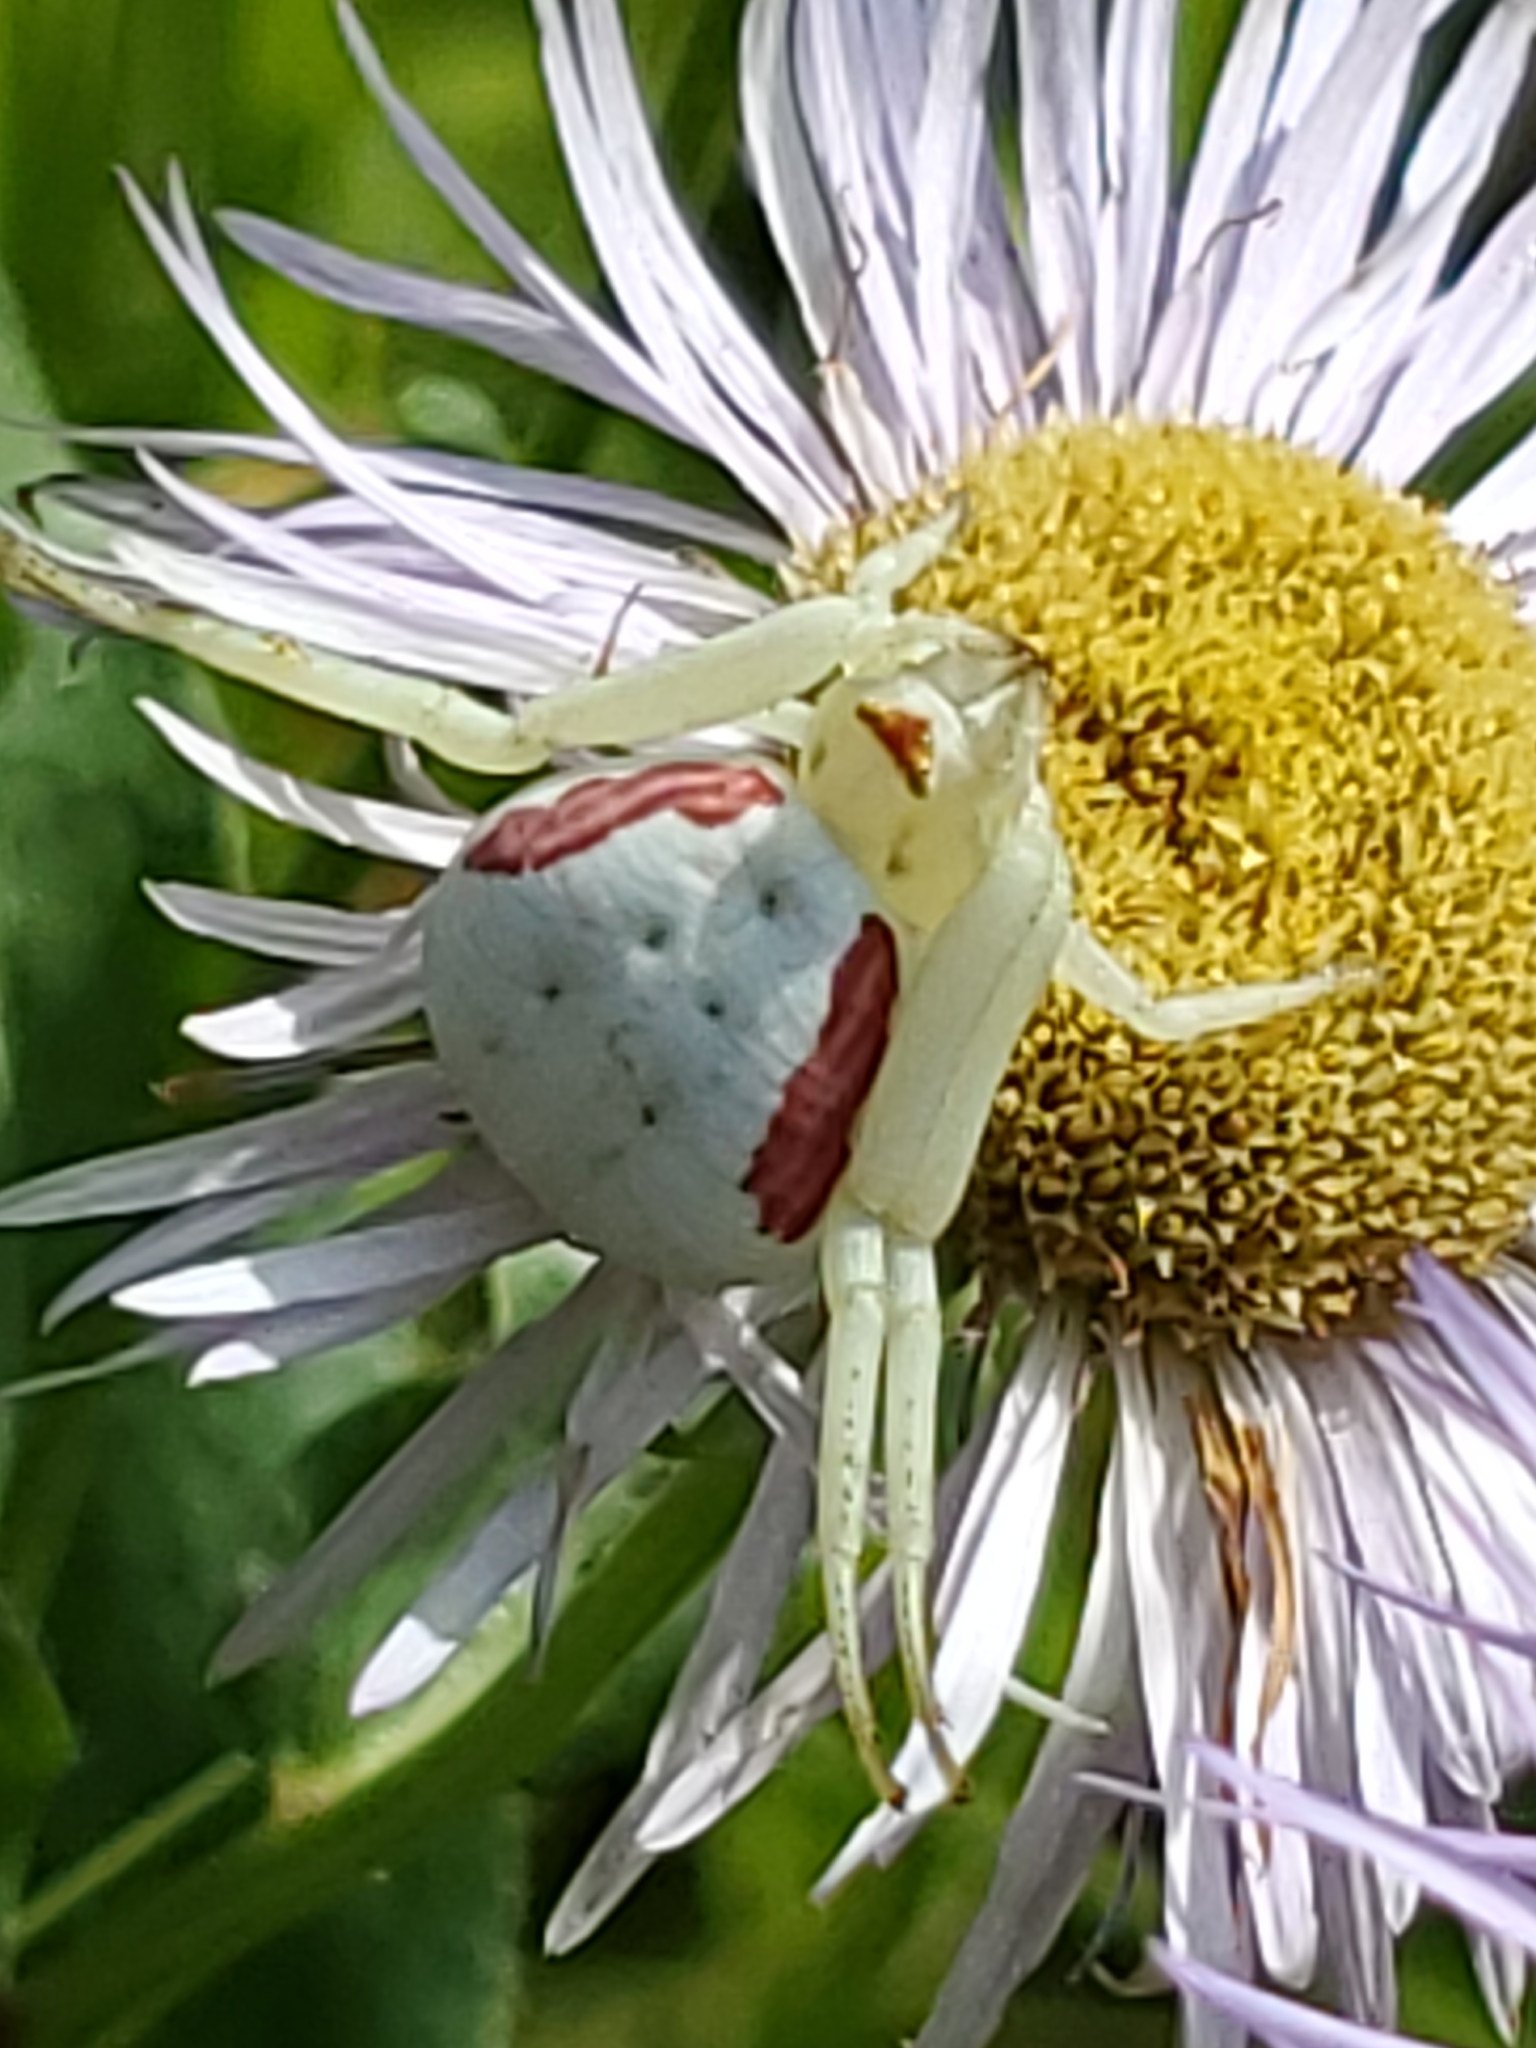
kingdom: Animalia
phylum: Arthropoda
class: Arachnida
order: Araneae
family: Thomisidae
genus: Misumena
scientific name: Misumena vatia
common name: Goldenrod crab spider
